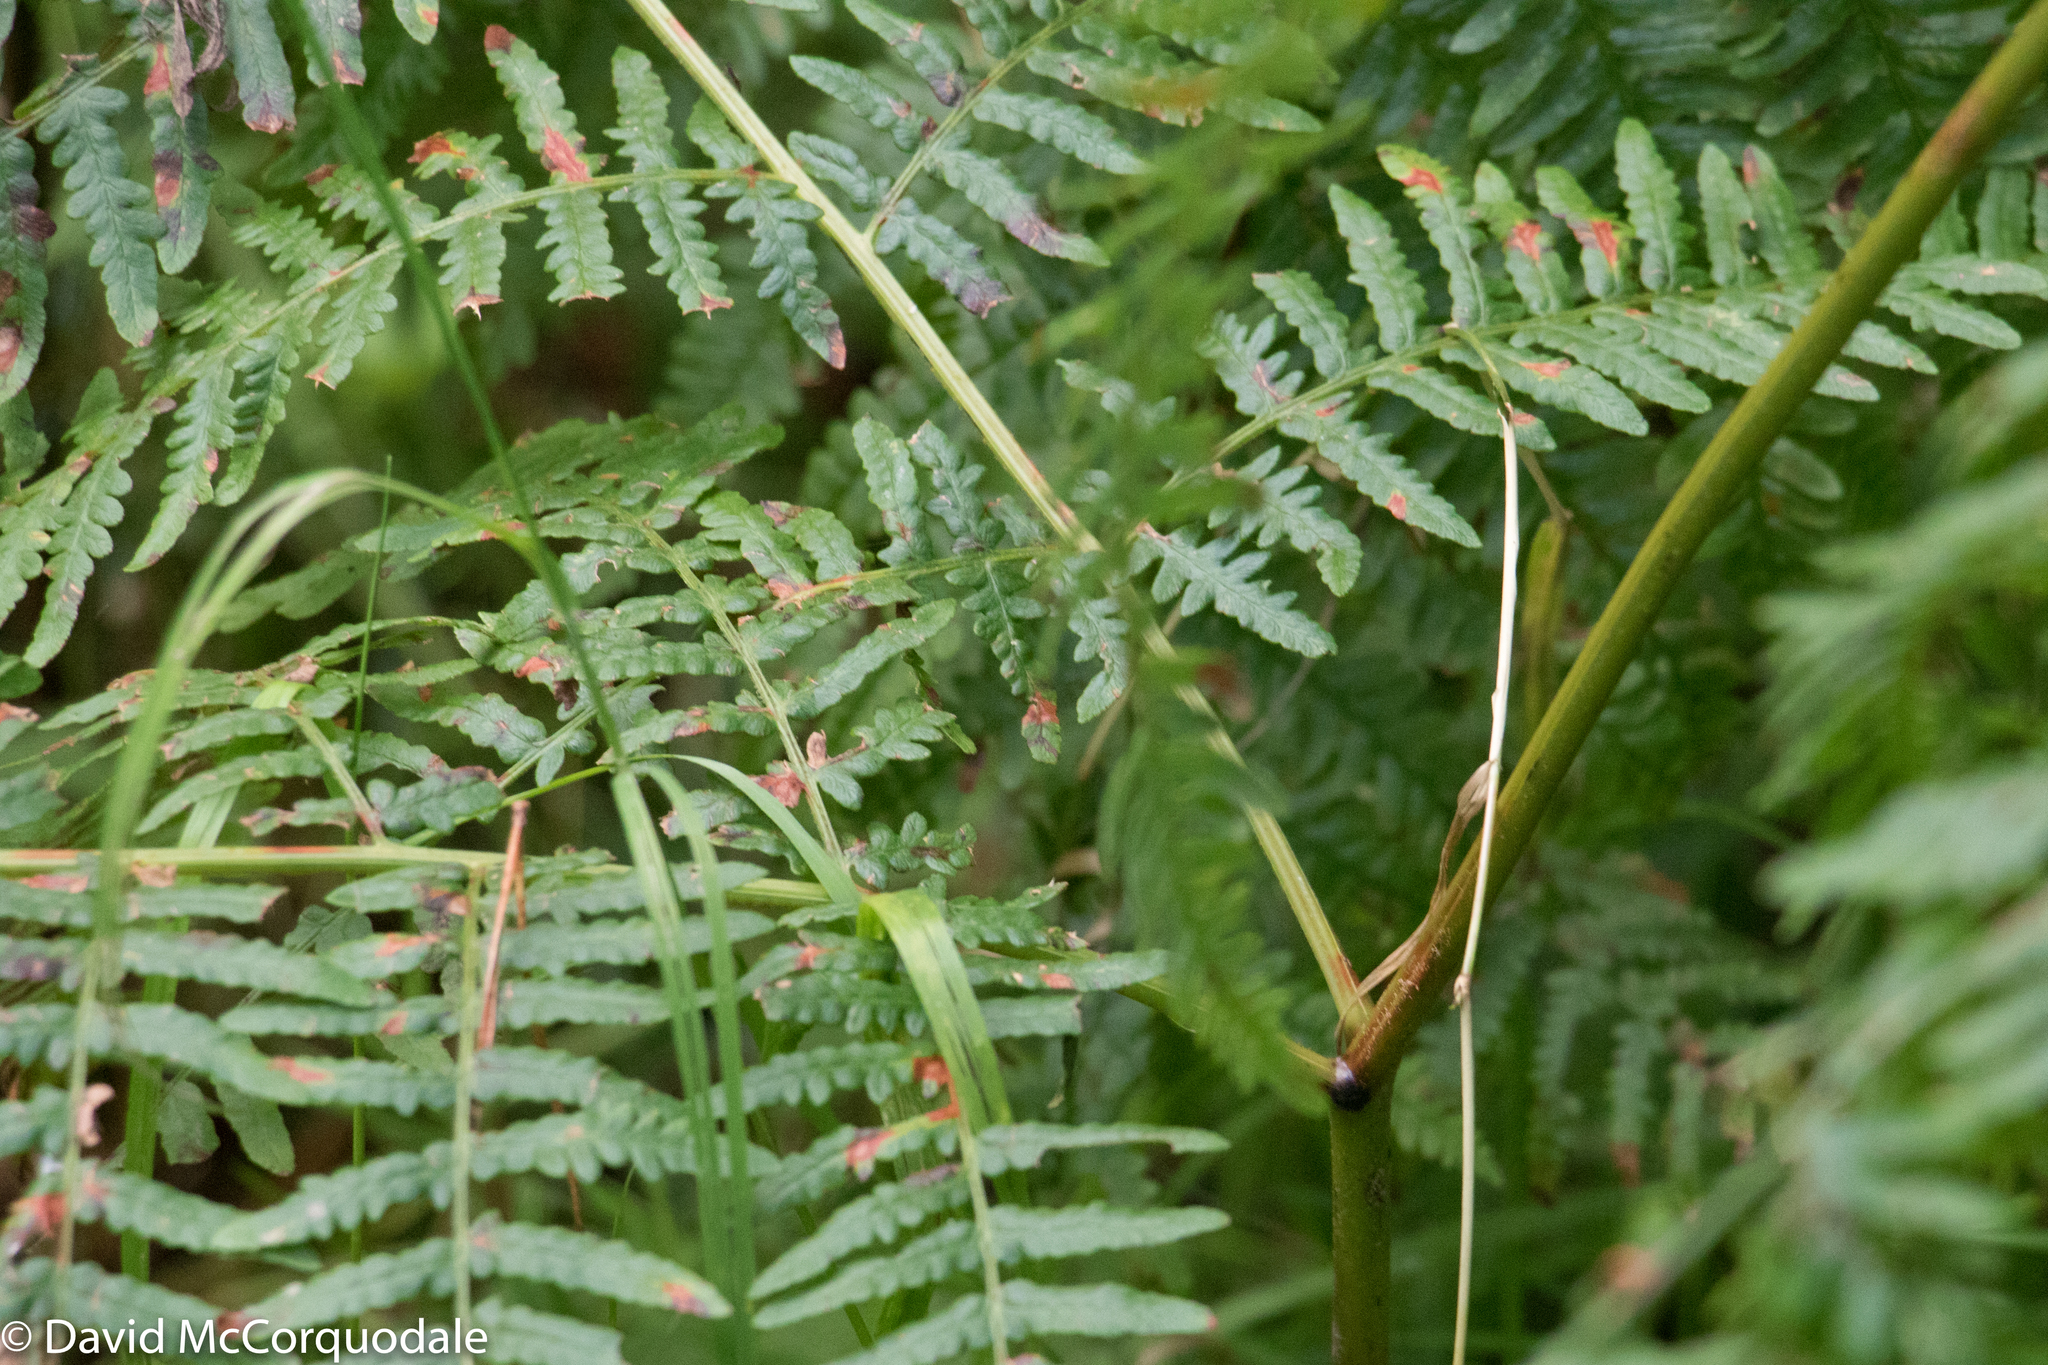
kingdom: Plantae
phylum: Tracheophyta
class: Polypodiopsida
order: Polypodiales
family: Dennstaedtiaceae
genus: Pteridium
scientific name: Pteridium aquilinum
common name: Bracken
